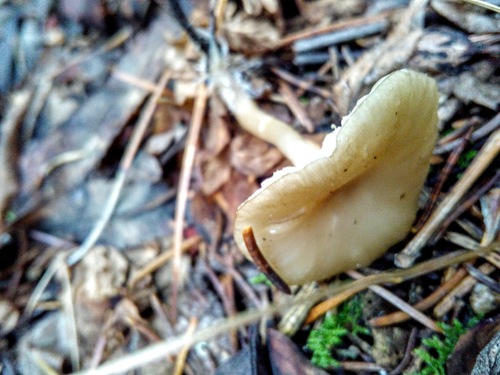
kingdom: Fungi
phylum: Basidiomycota
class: Agaricomycetes
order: Agaricales
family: Tricholomataceae
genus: Clitocybe
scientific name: Clitocybe
